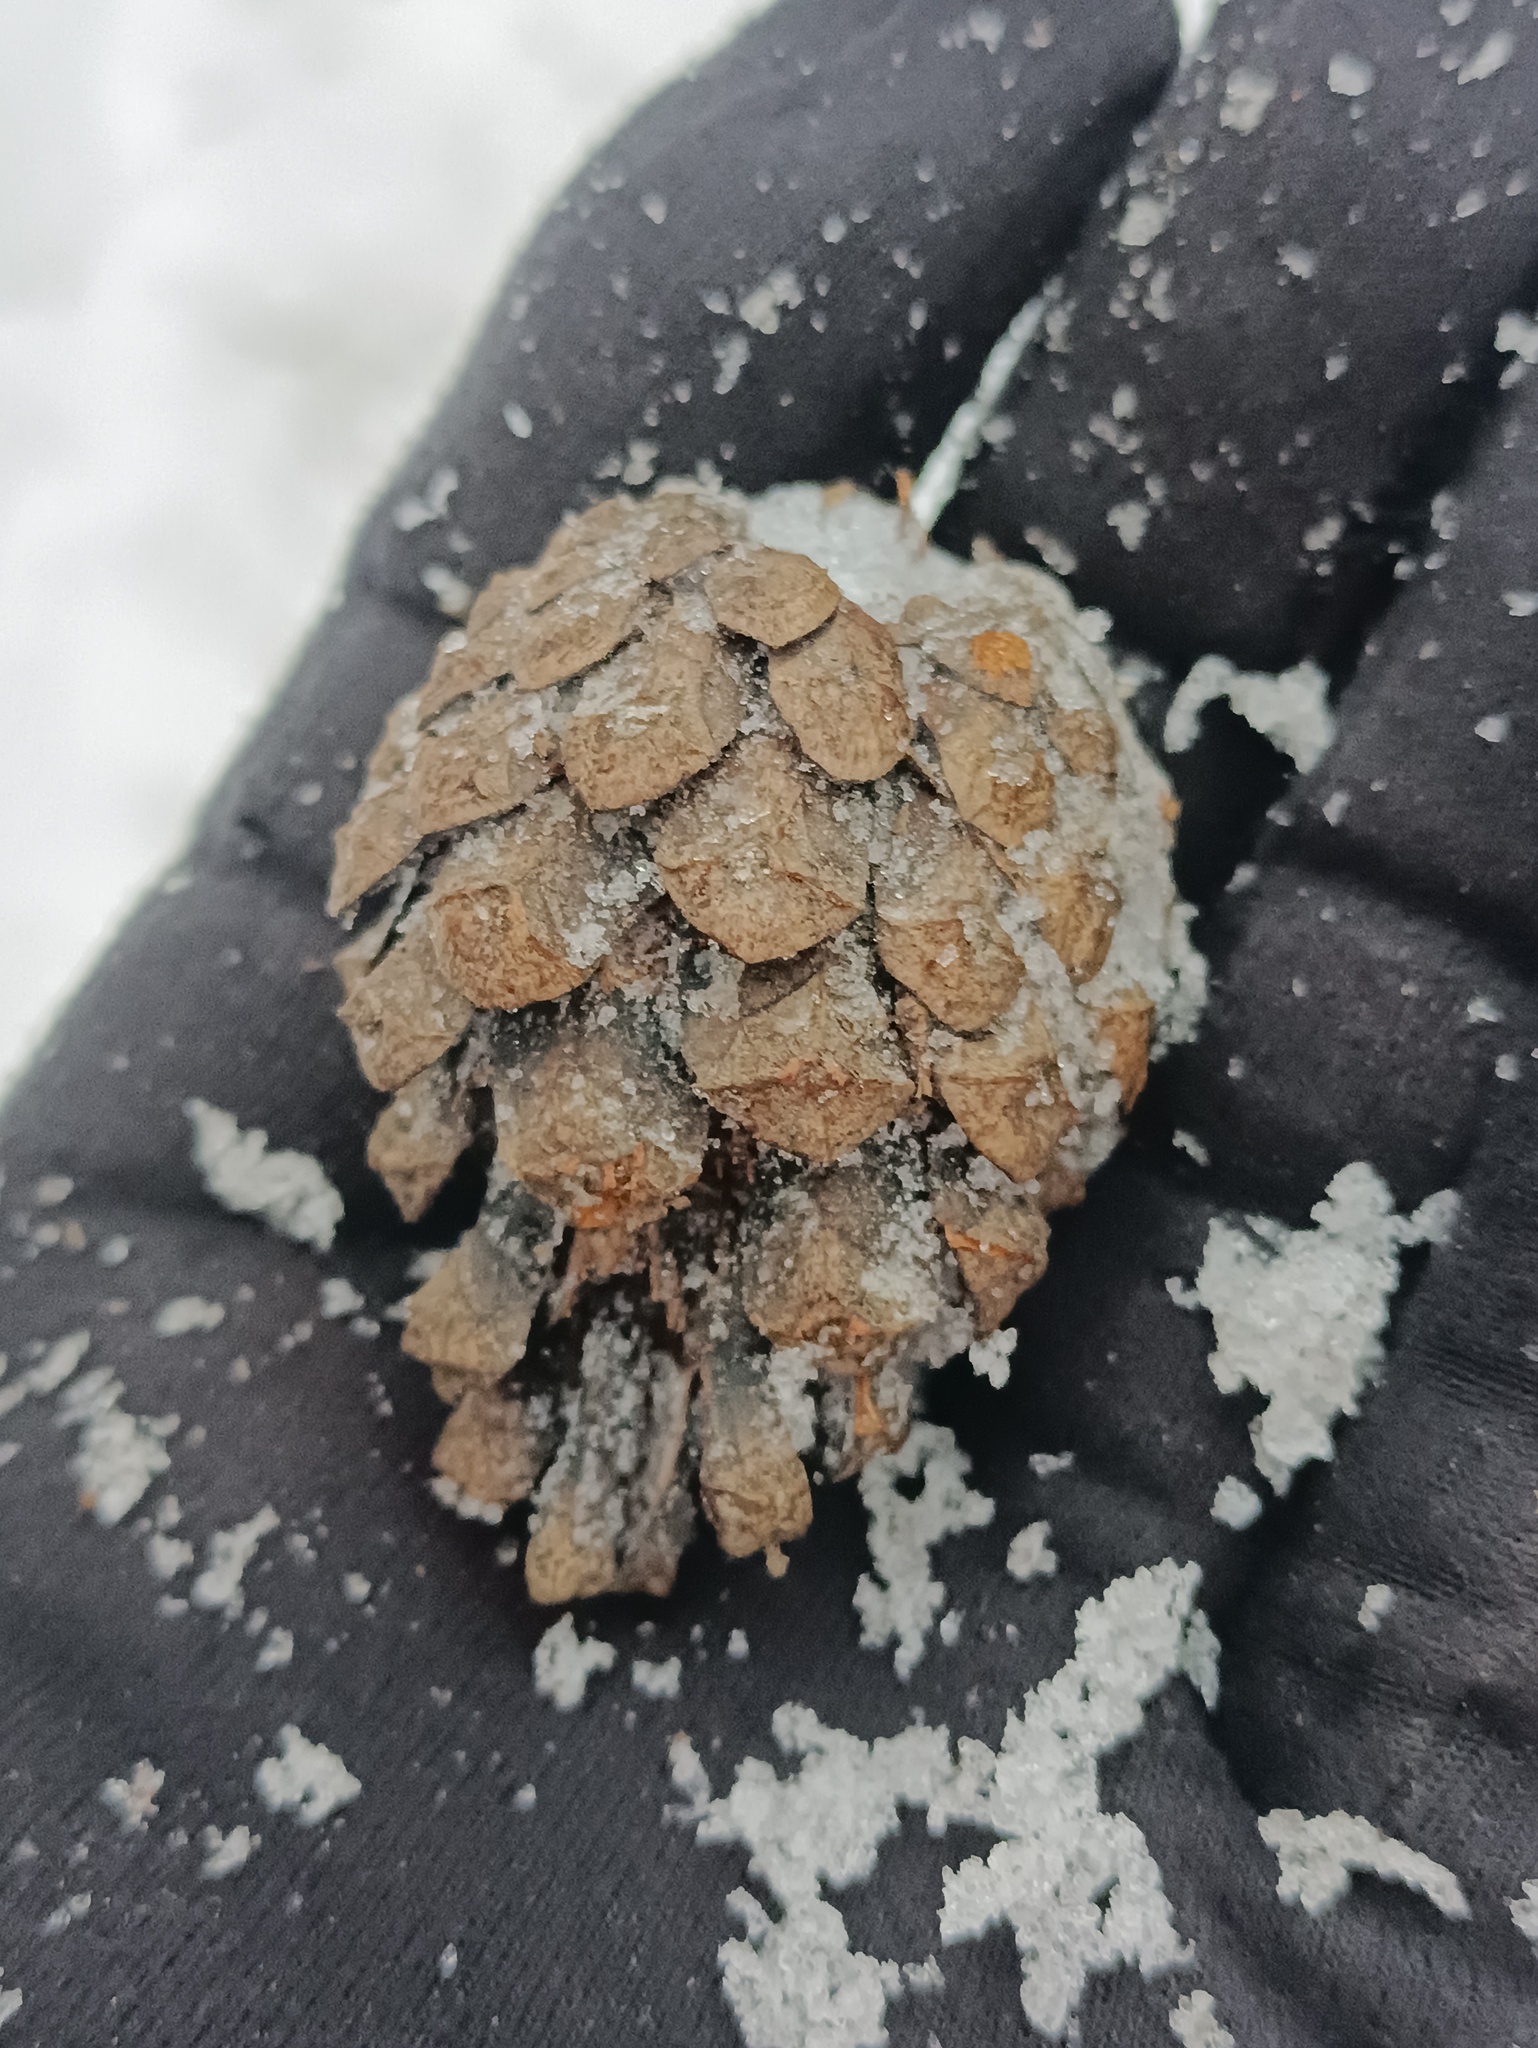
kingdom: Plantae
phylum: Tracheophyta
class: Pinopsida
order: Pinales
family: Pinaceae
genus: Pinus
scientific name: Pinus sylvestris
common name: Scots pine
